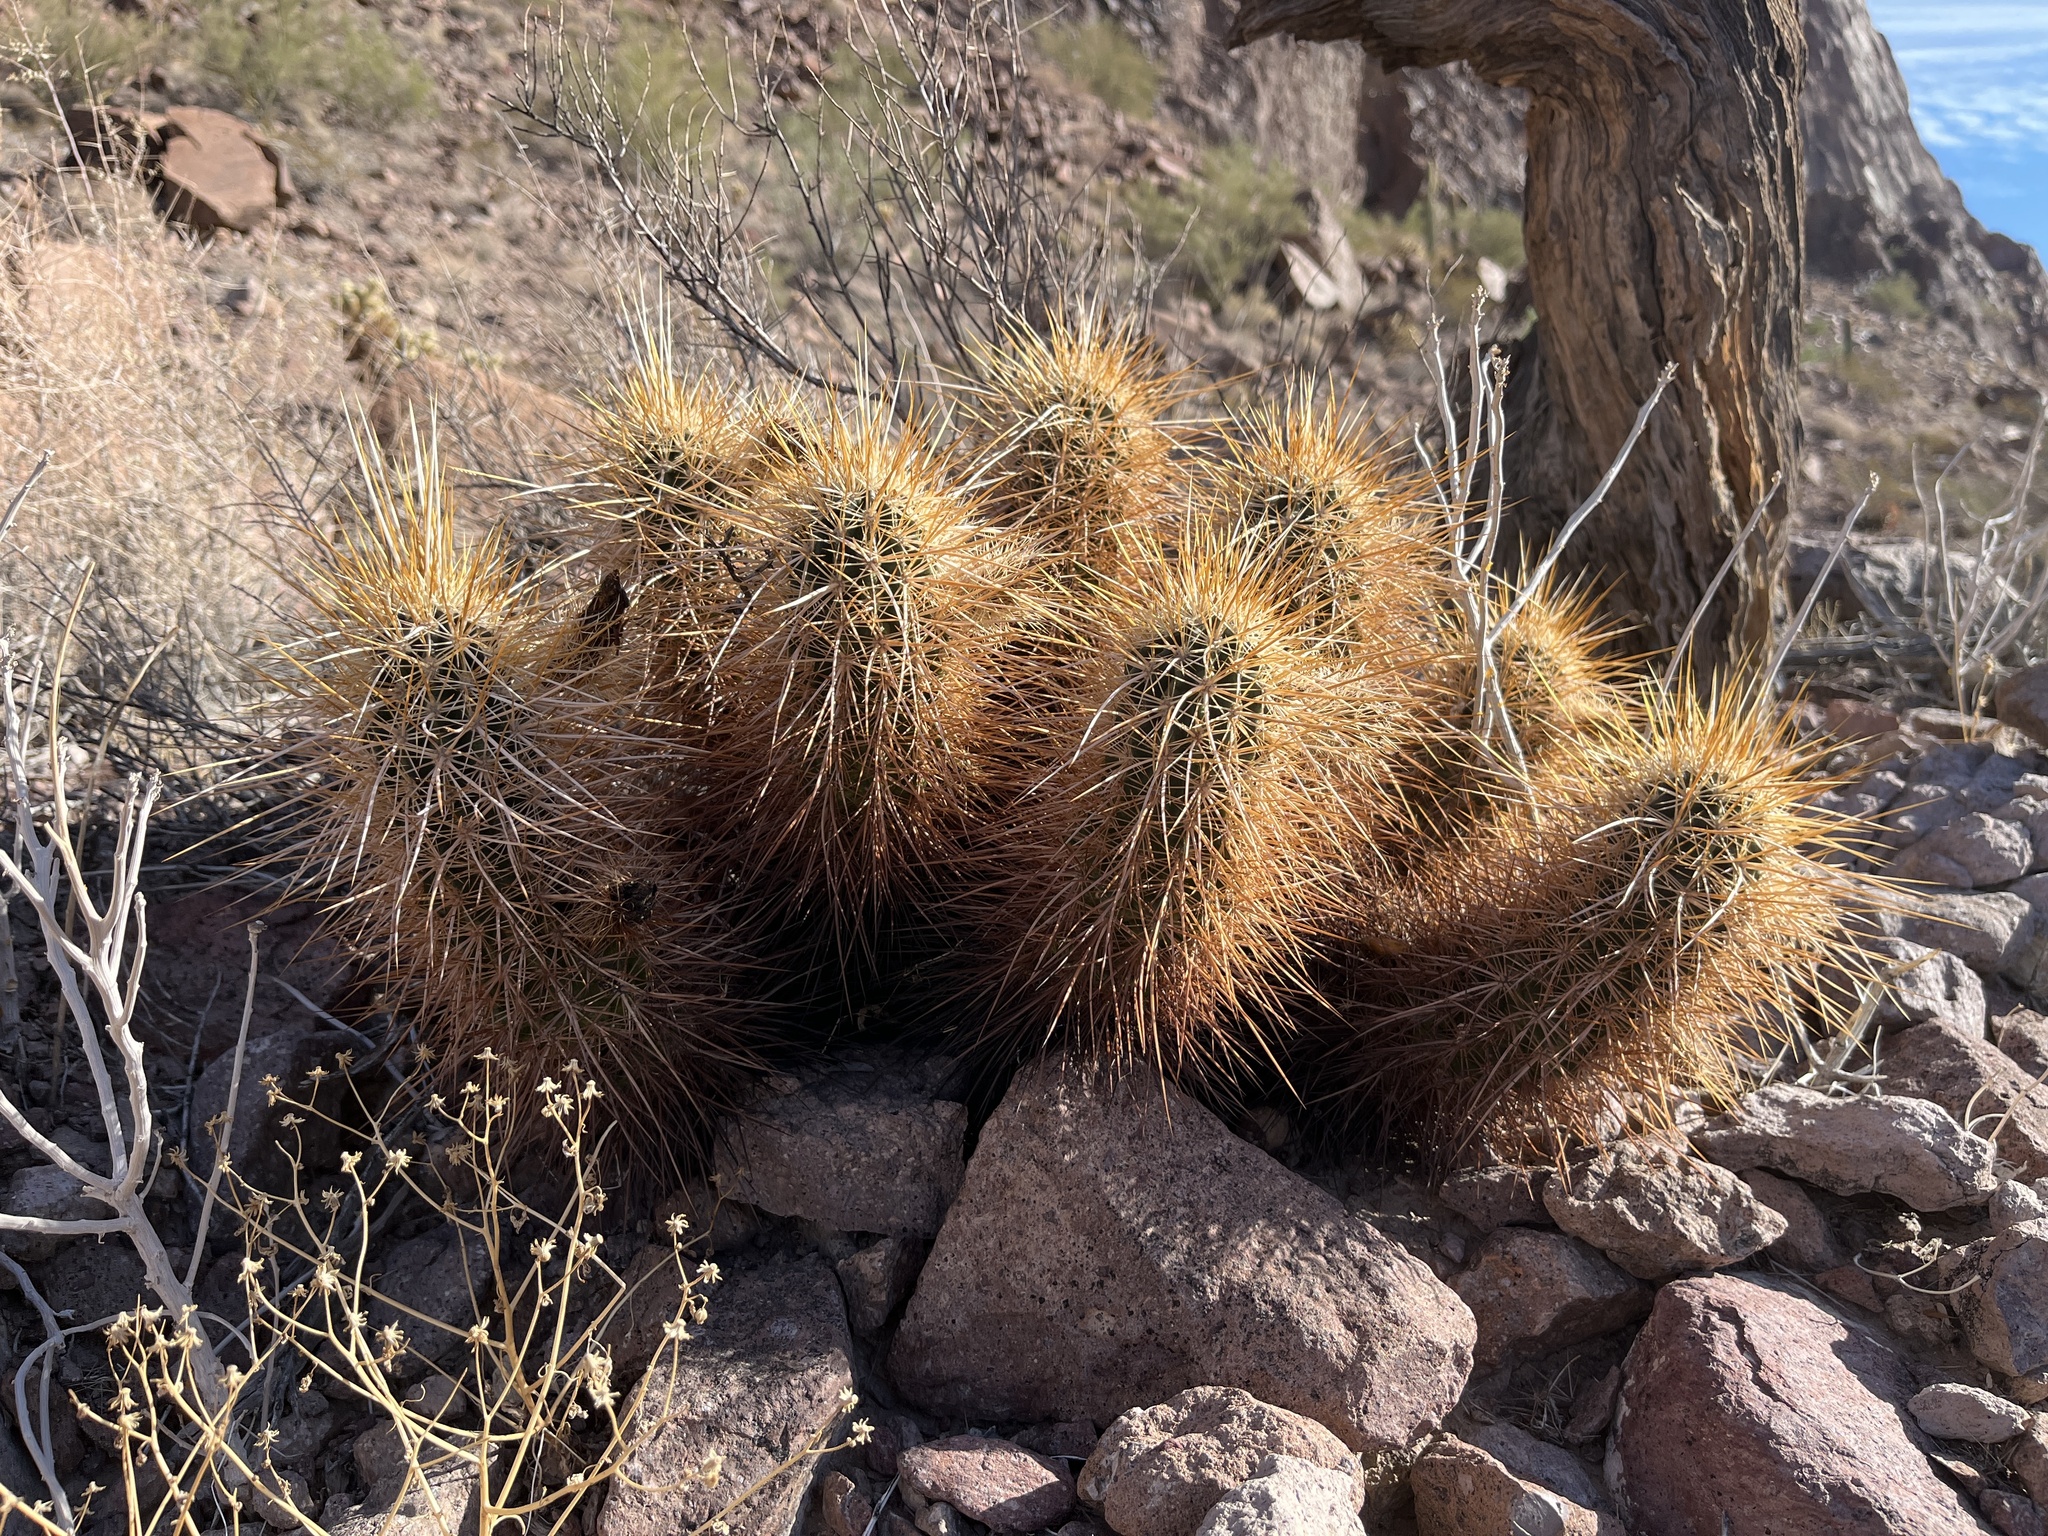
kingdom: Plantae
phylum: Tracheophyta
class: Magnoliopsida
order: Caryophyllales
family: Cactaceae
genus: Echinocereus
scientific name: Echinocereus engelmannii
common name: Engelmann's hedgehog cactus
